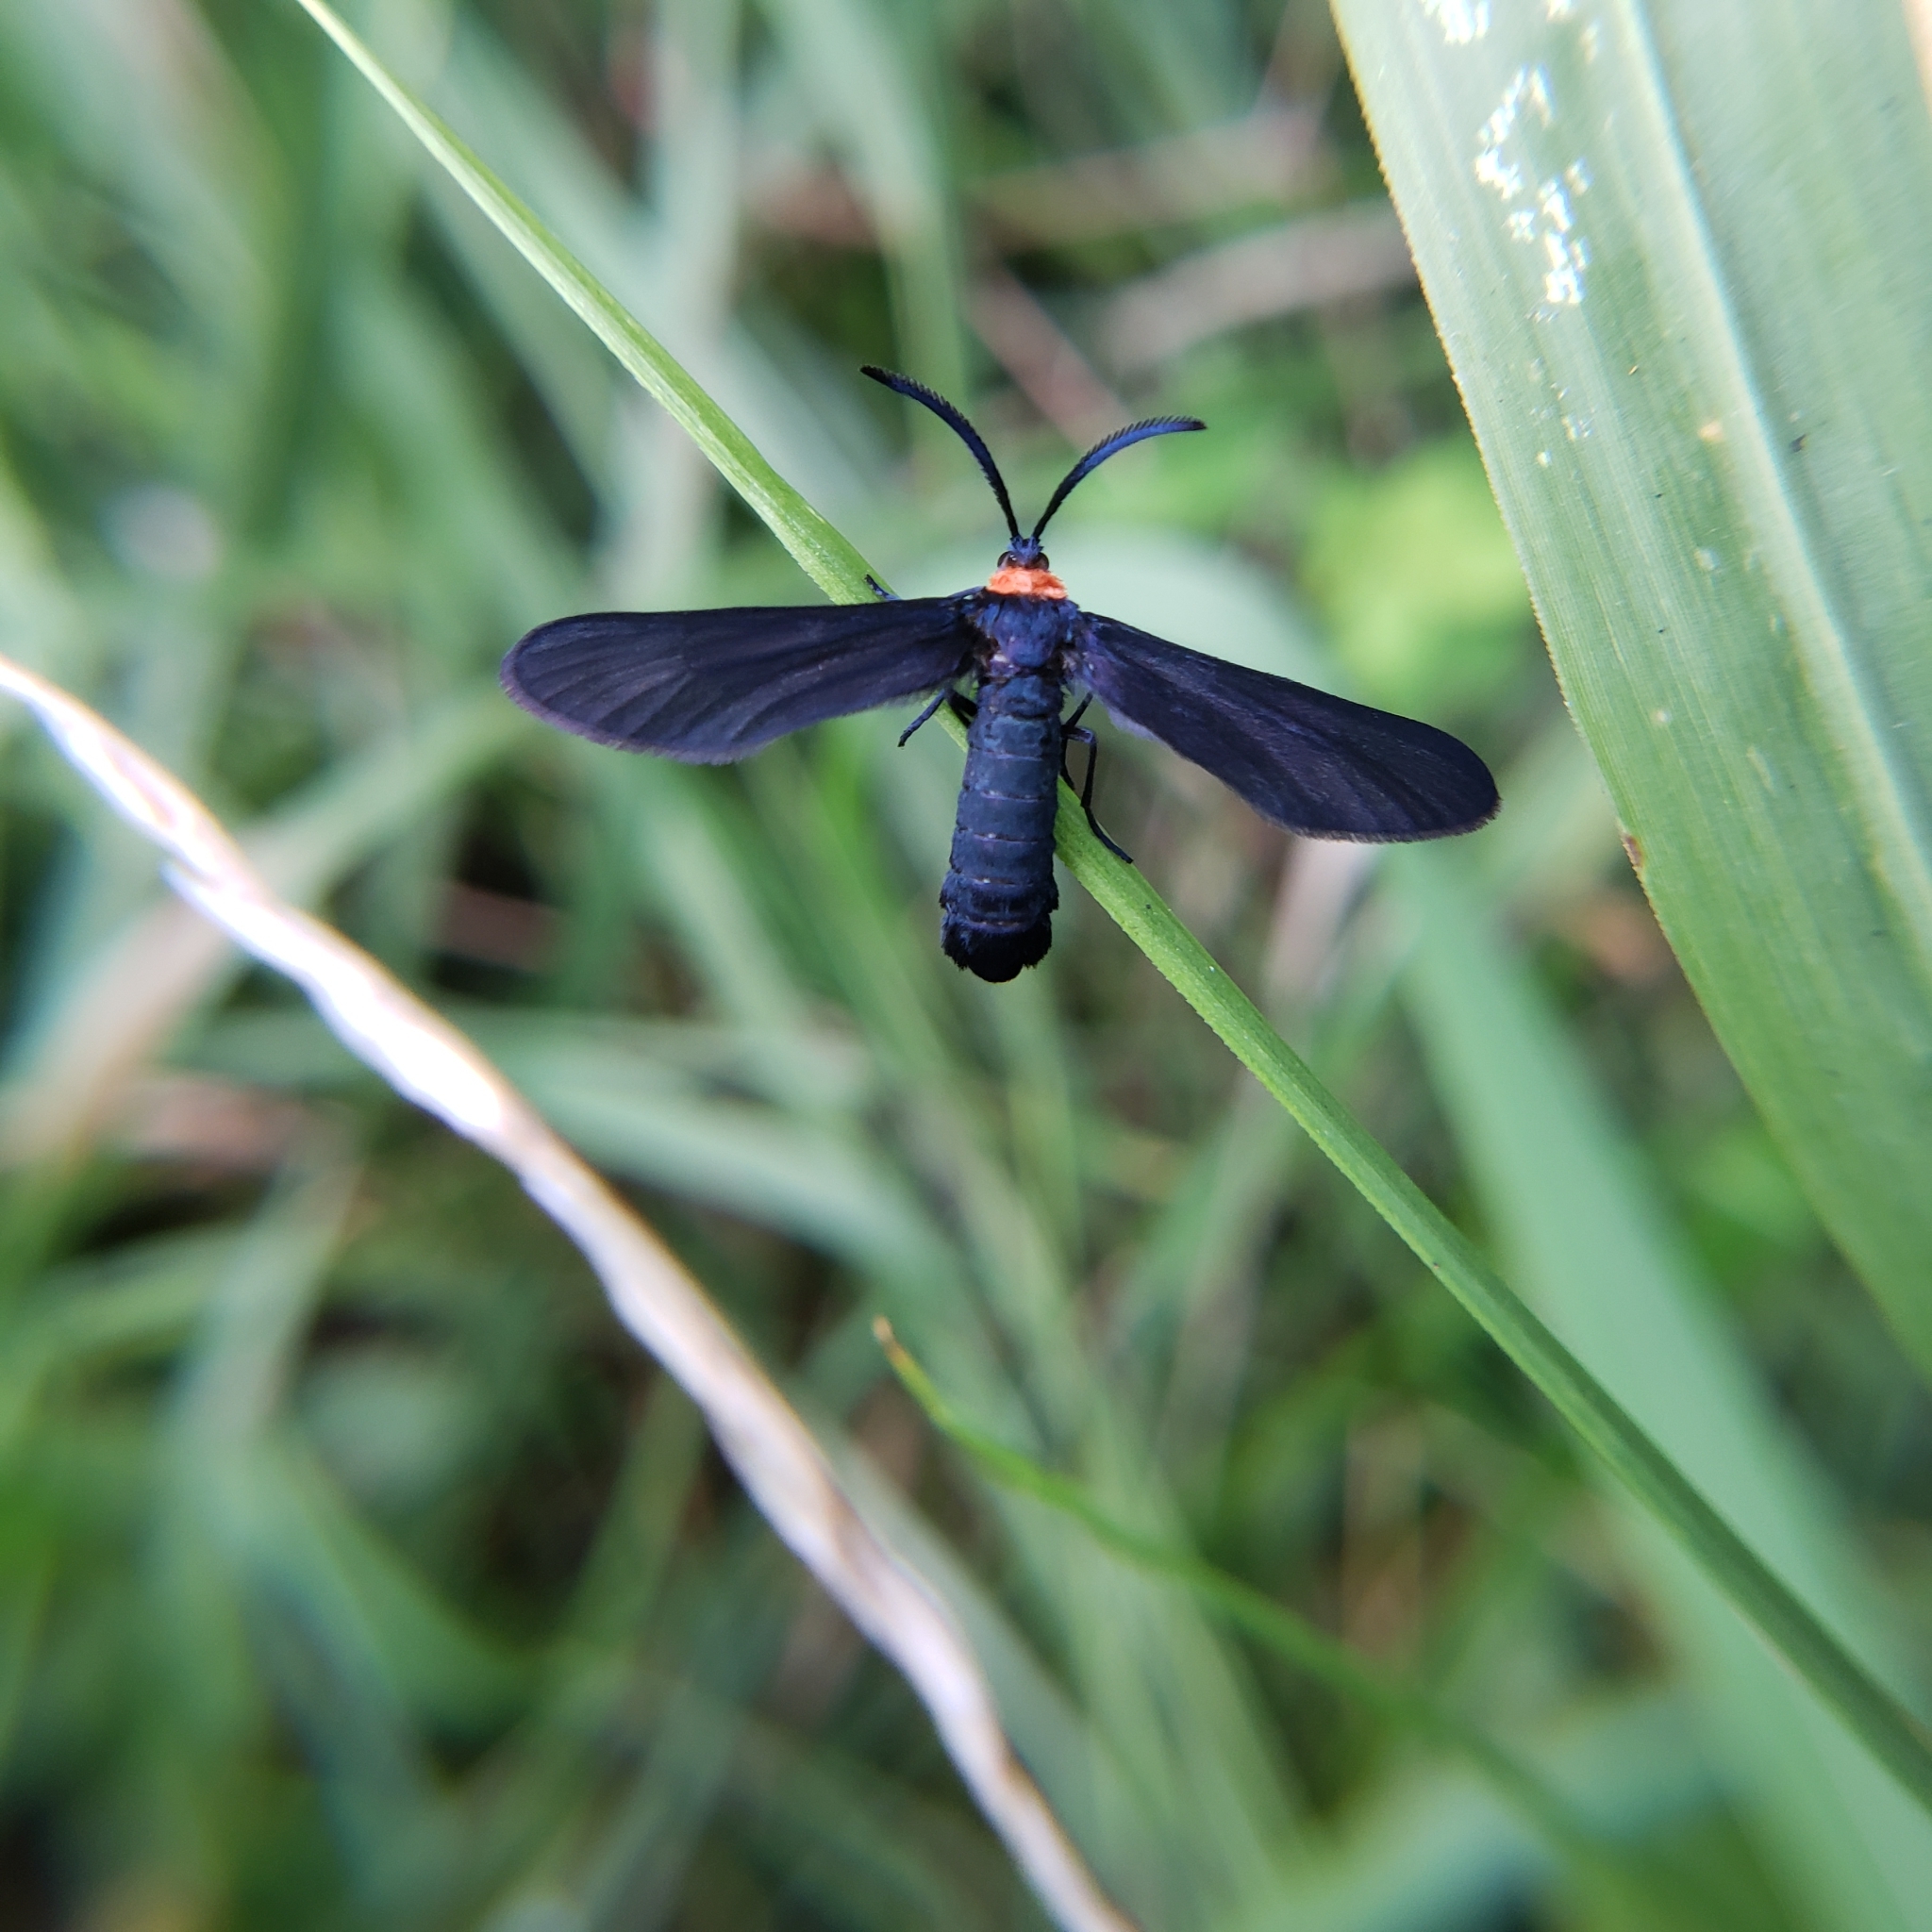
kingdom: Animalia
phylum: Arthropoda
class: Insecta
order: Lepidoptera
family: Zygaenidae
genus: Harrisina
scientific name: Harrisina americana
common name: Grapeleaf skeletonizer moth
